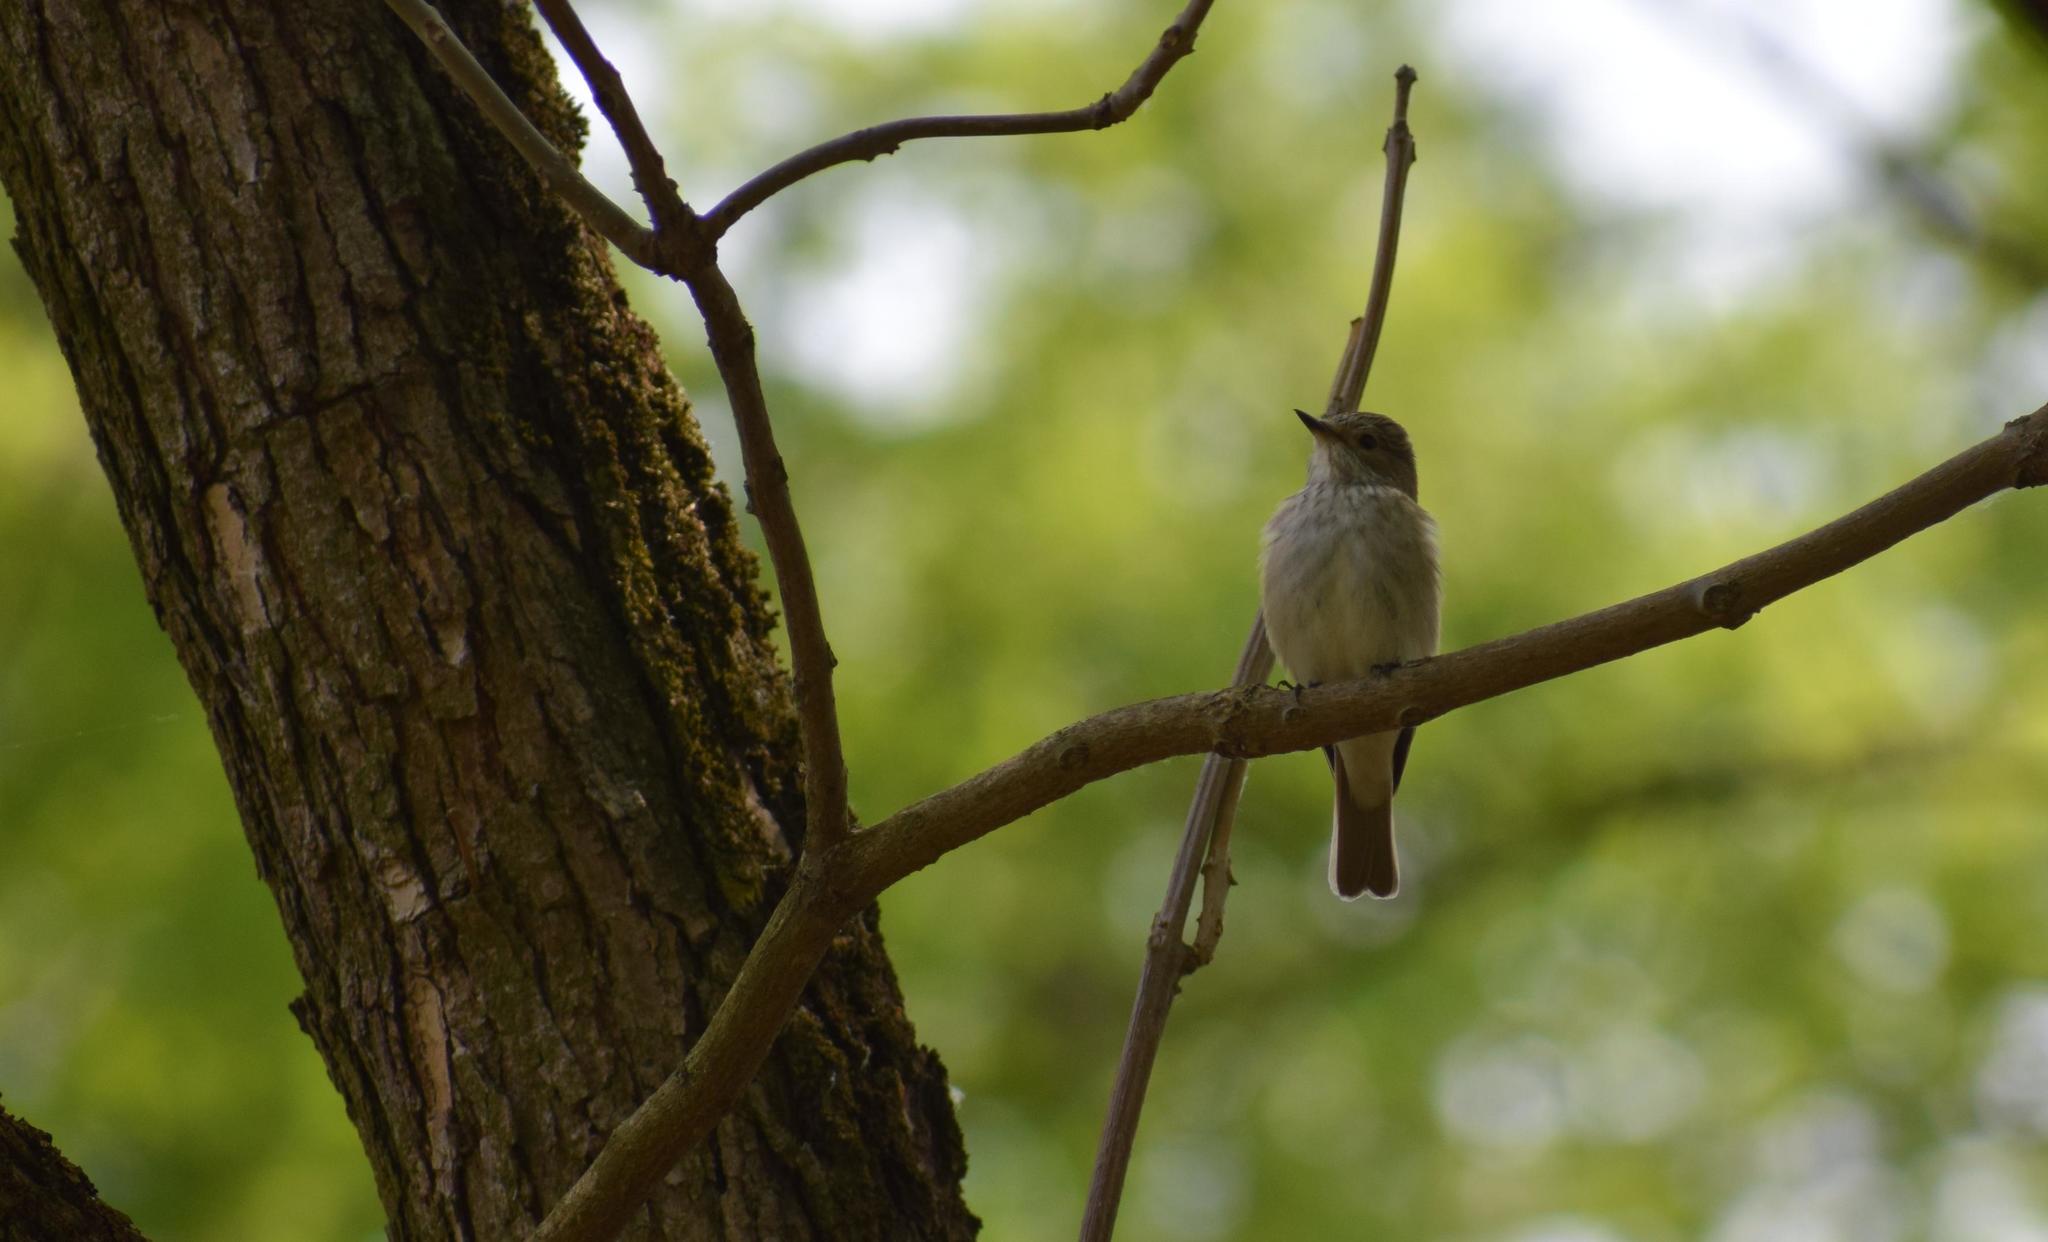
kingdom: Animalia
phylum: Chordata
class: Aves
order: Passeriformes
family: Muscicapidae
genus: Muscicapa
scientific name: Muscicapa striata
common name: Spotted flycatcher
